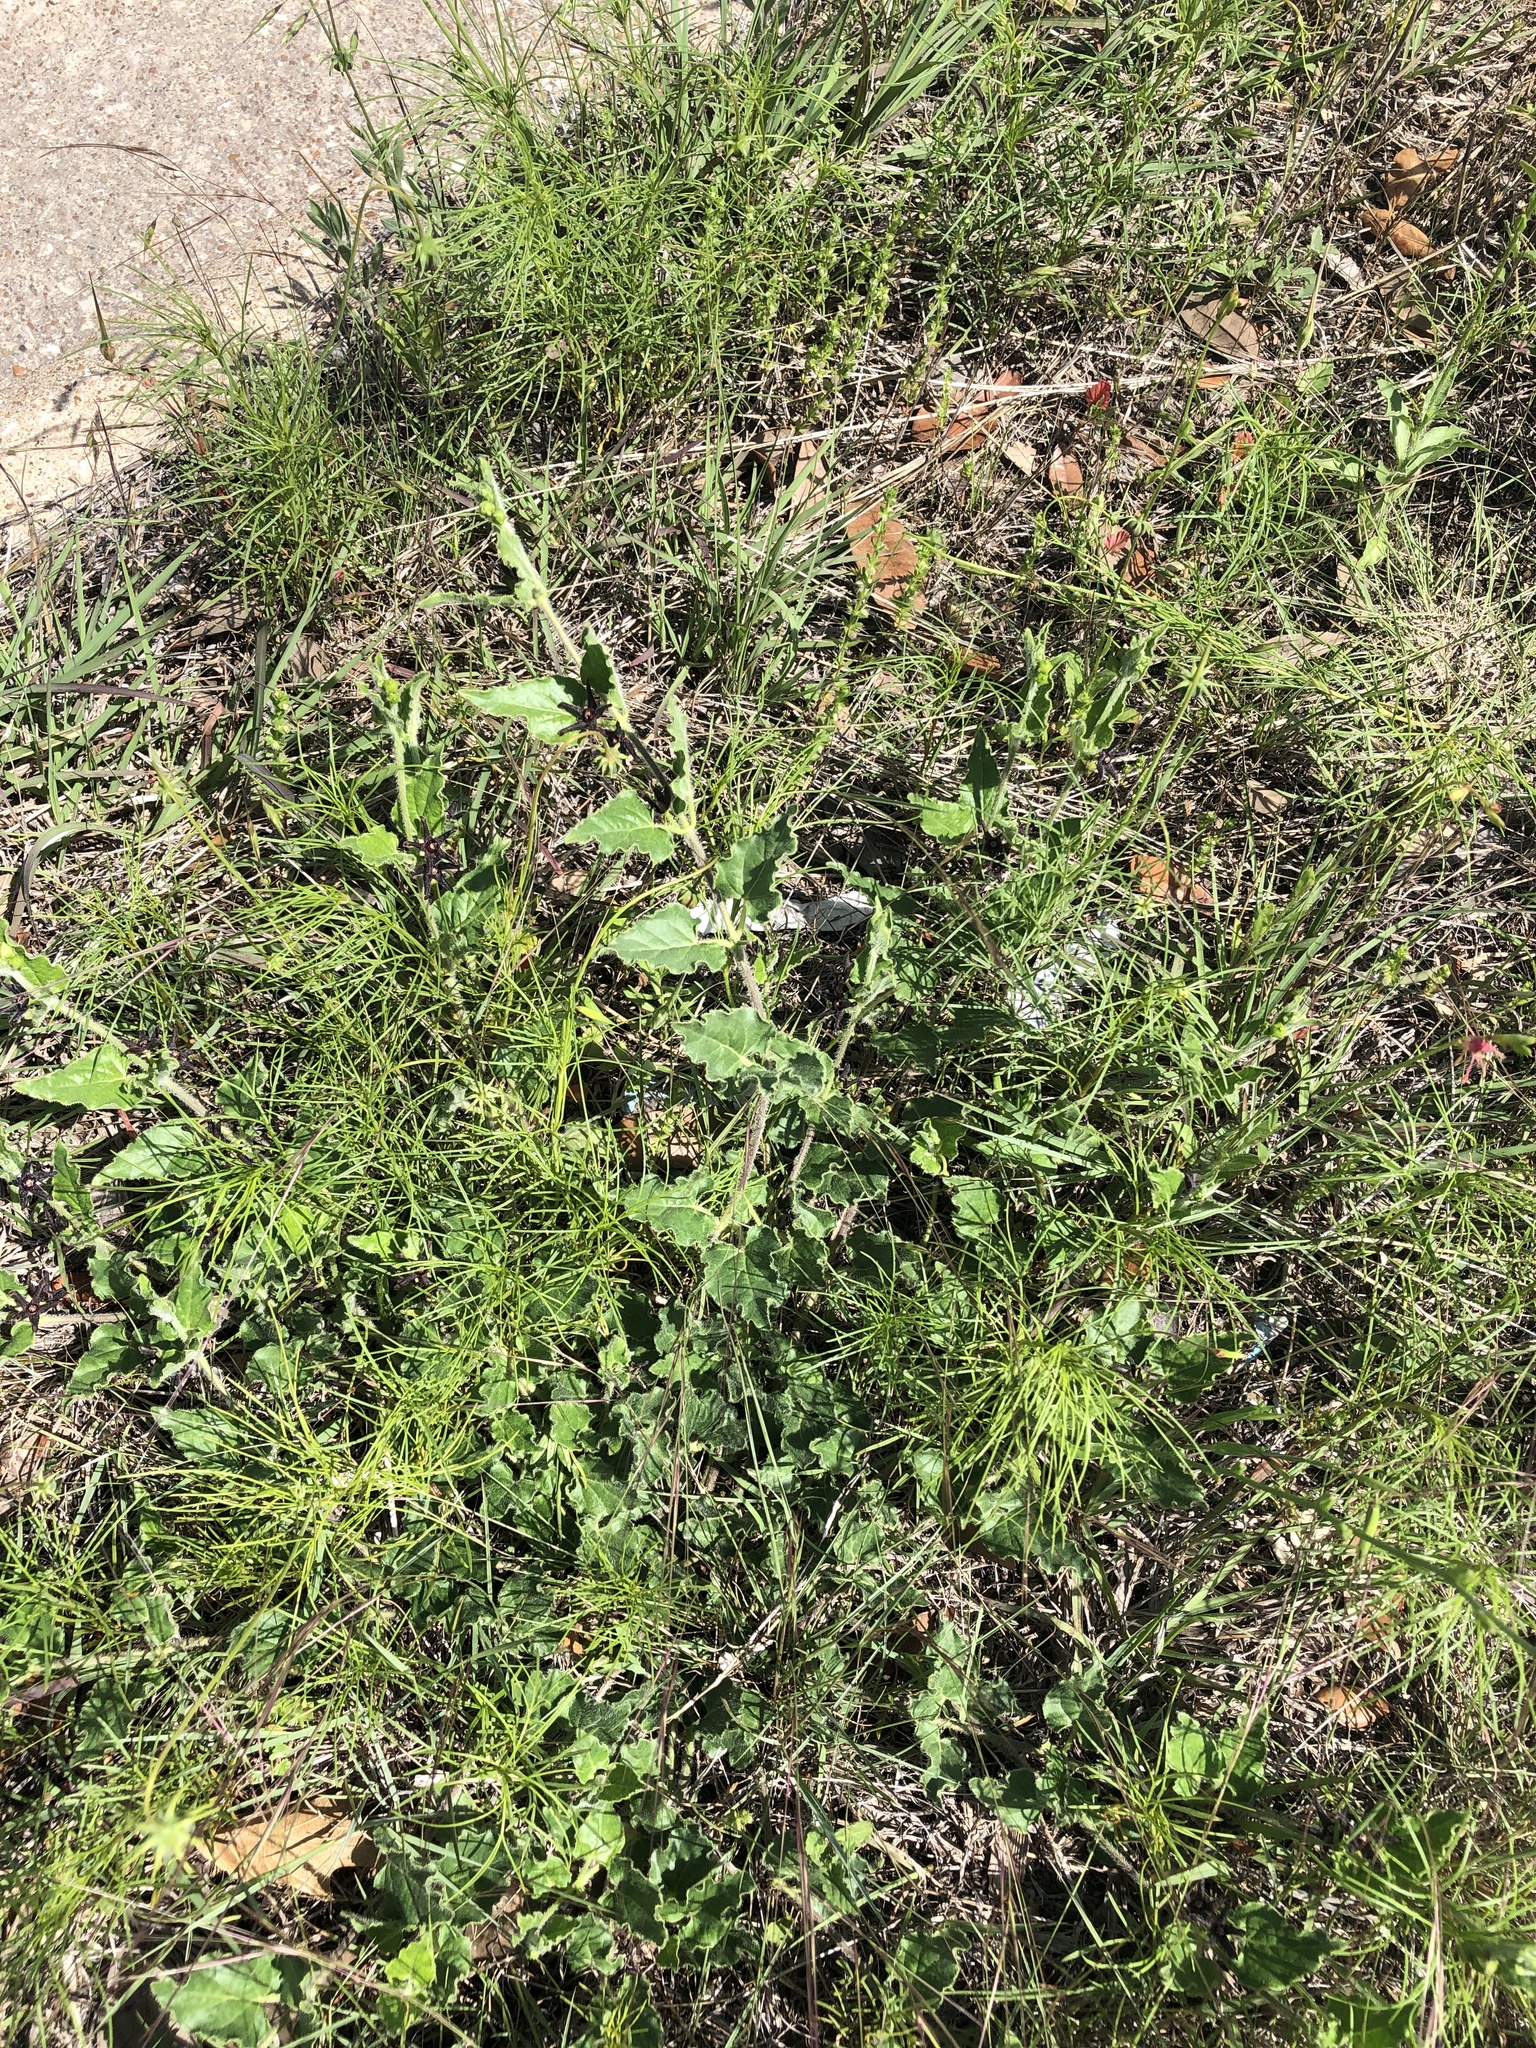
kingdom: Plantae
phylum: Tracheophyta
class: Magnoliopsida
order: Gentianales
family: Apocynaceae
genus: Chthamalia
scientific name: Chthamalia biflora
